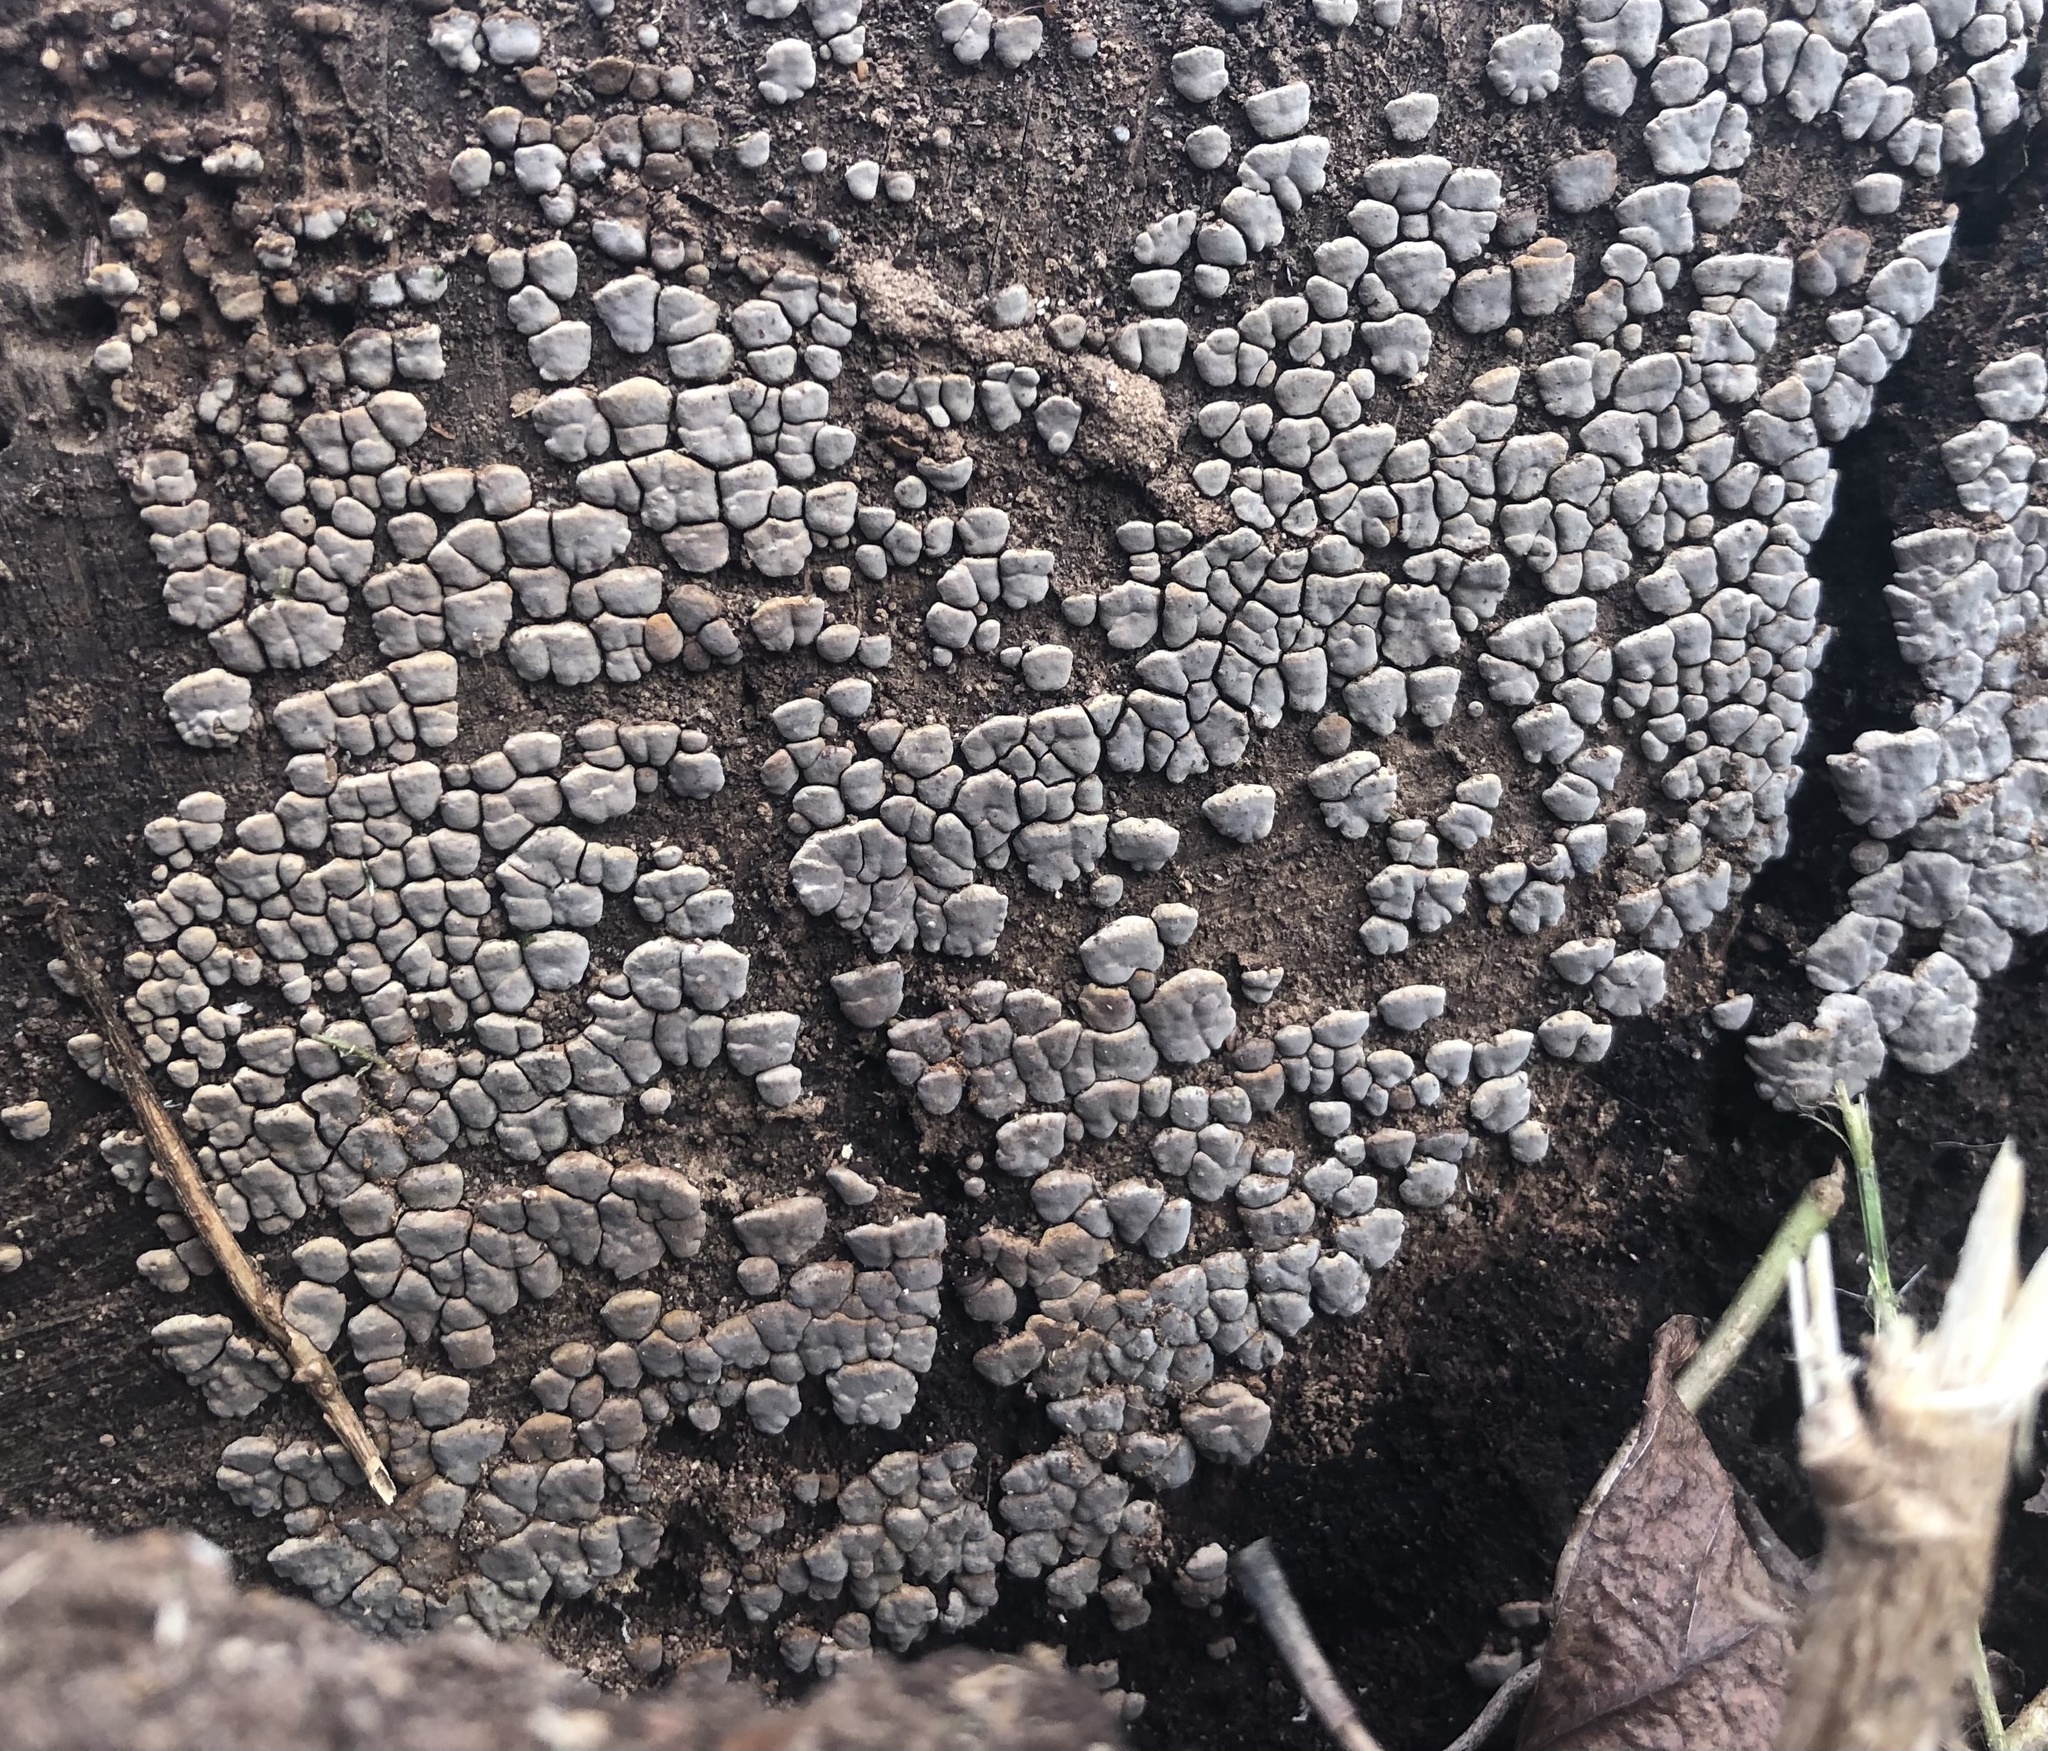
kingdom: Fungi
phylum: Basidiomycota
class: Agaricomycetes
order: Russulales
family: Stereaceae
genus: Xylobolus
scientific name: Xylobolus frustulatus
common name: Ceramic parchment
